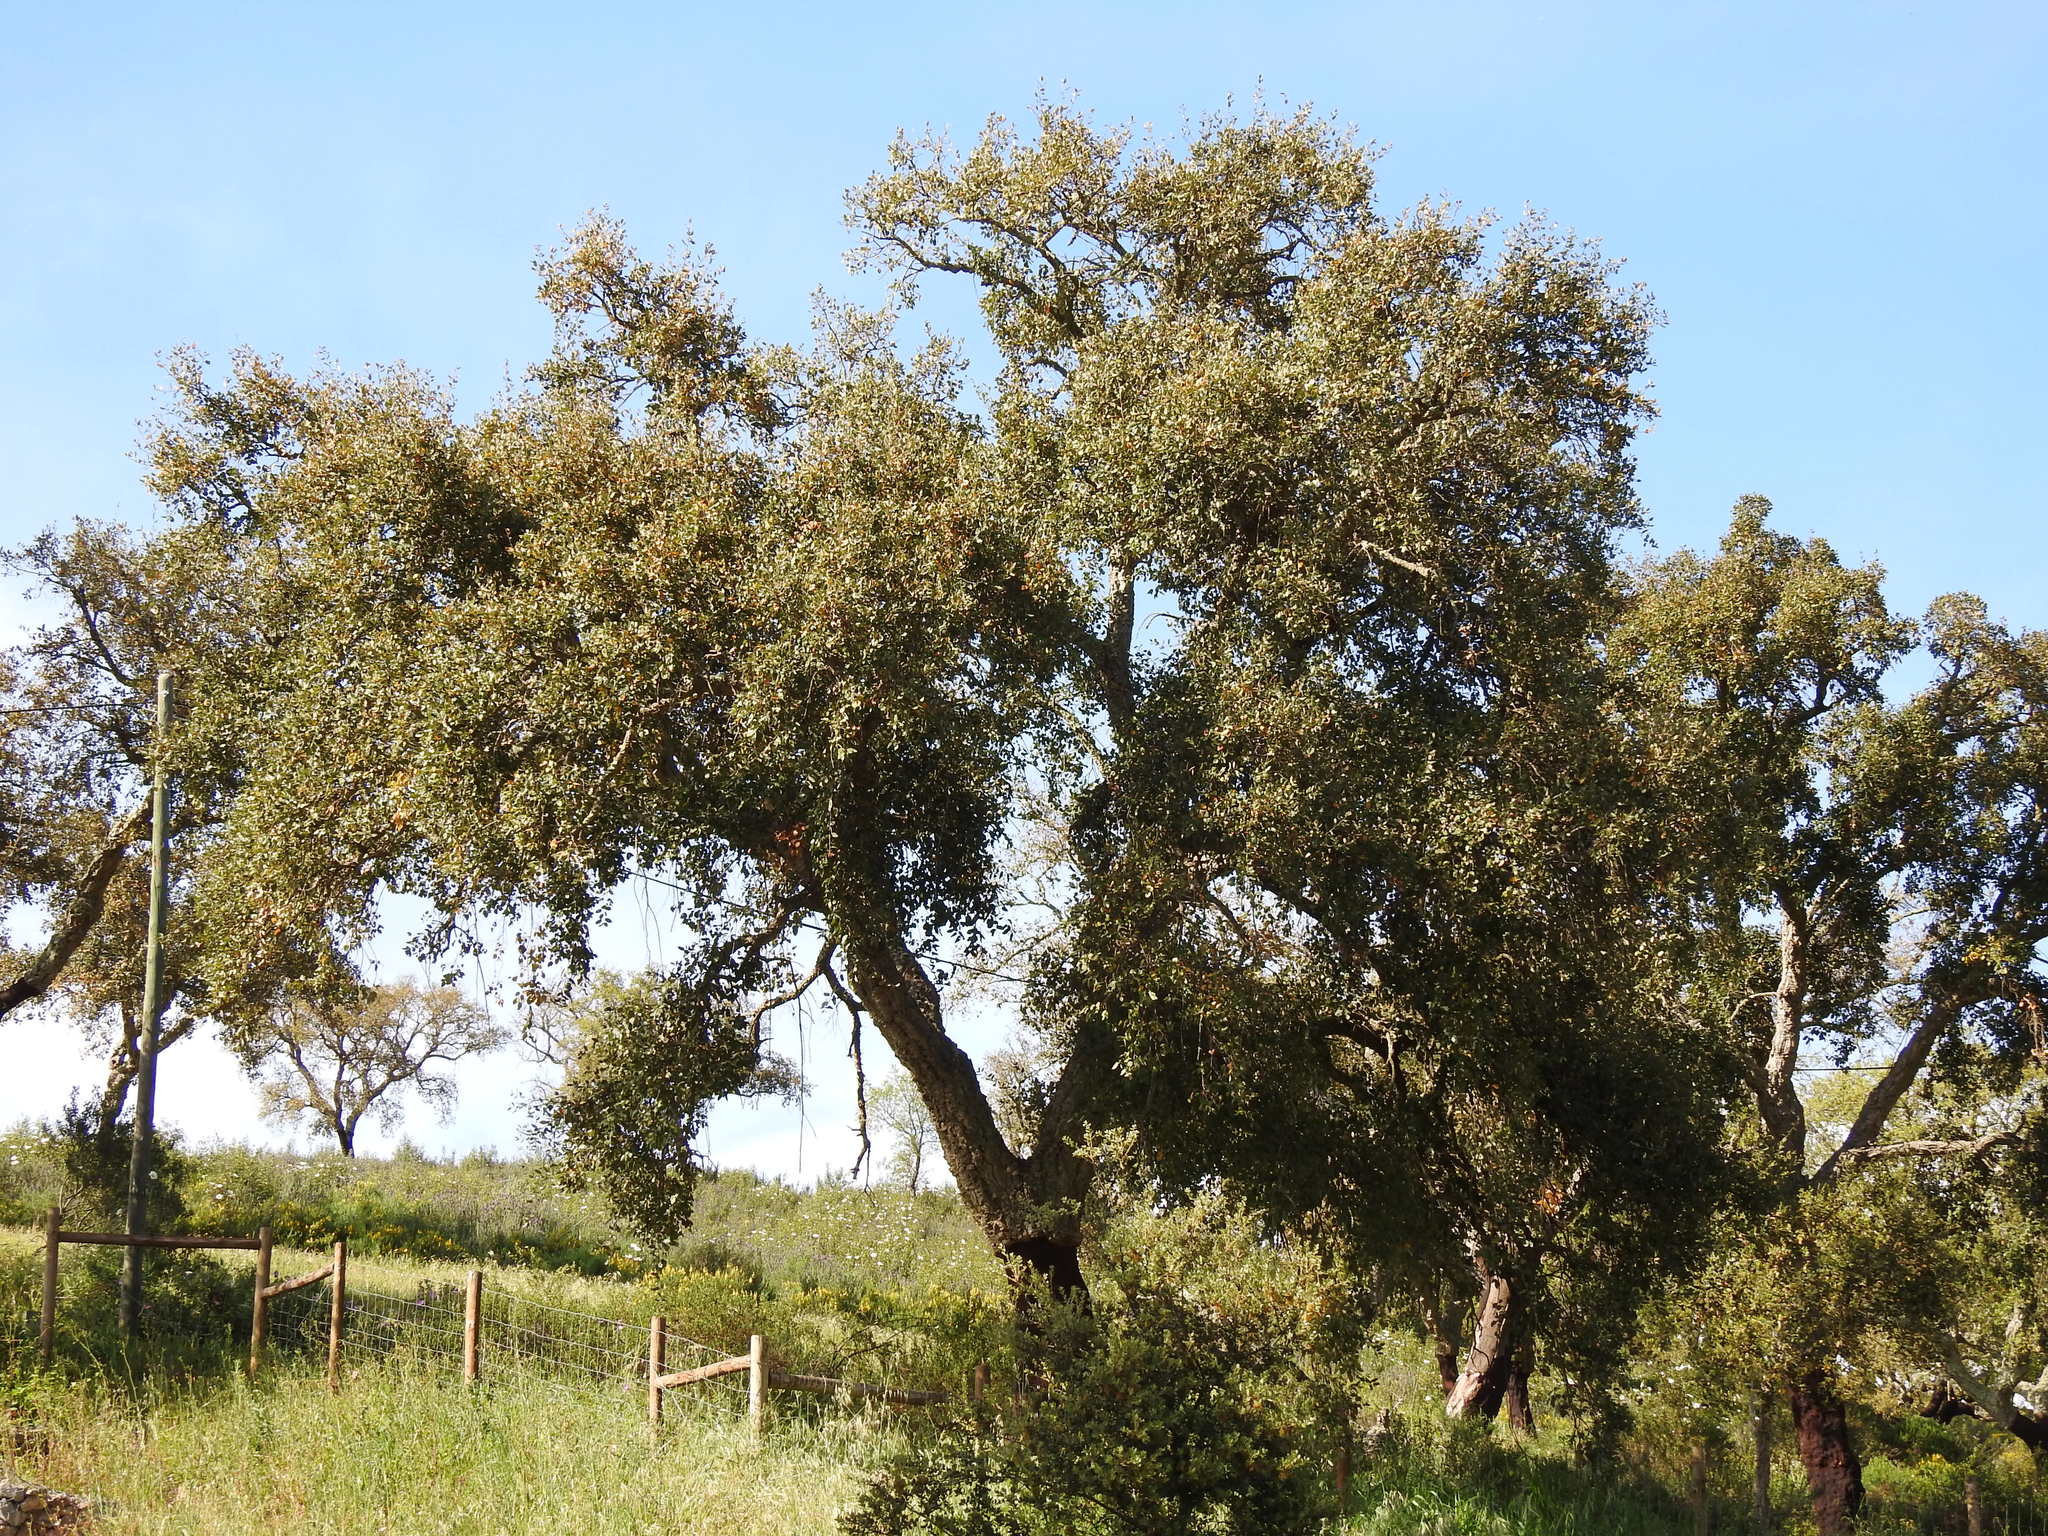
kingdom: Plantae
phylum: Tracheophyta
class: Magnoliopsida
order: Fagales
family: Fagaceae
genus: Quercus
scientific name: Quercus suber
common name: Cork oak
